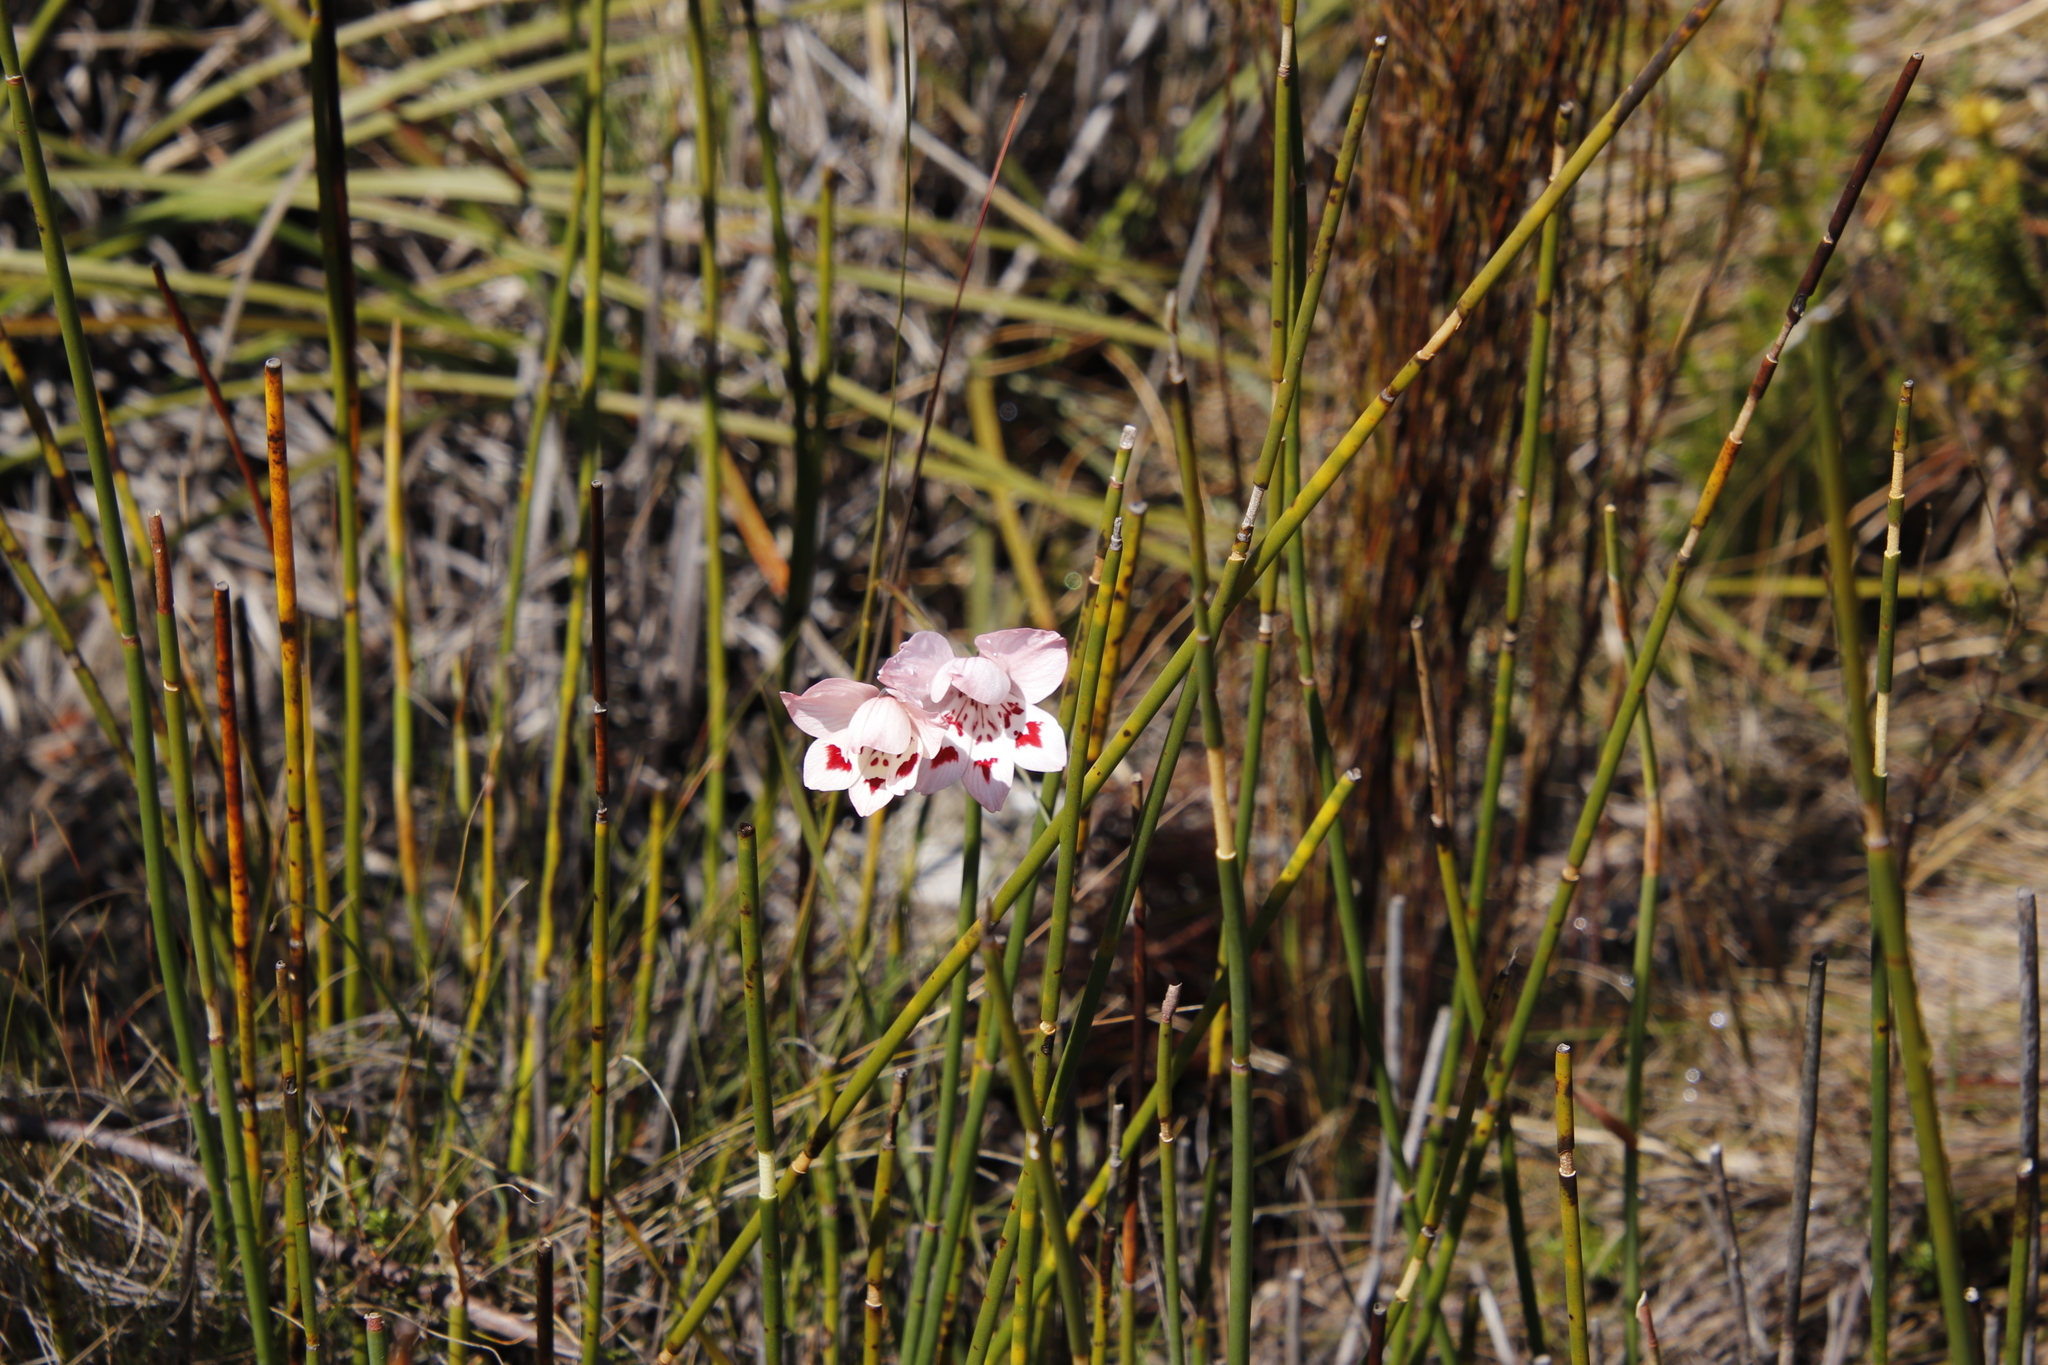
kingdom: Plantae
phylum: Tracheophyta
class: Liliopsida
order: Asparagales
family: Iridaceae
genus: Gladiolus
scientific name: Gladiolus debilis
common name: Painted-lady
